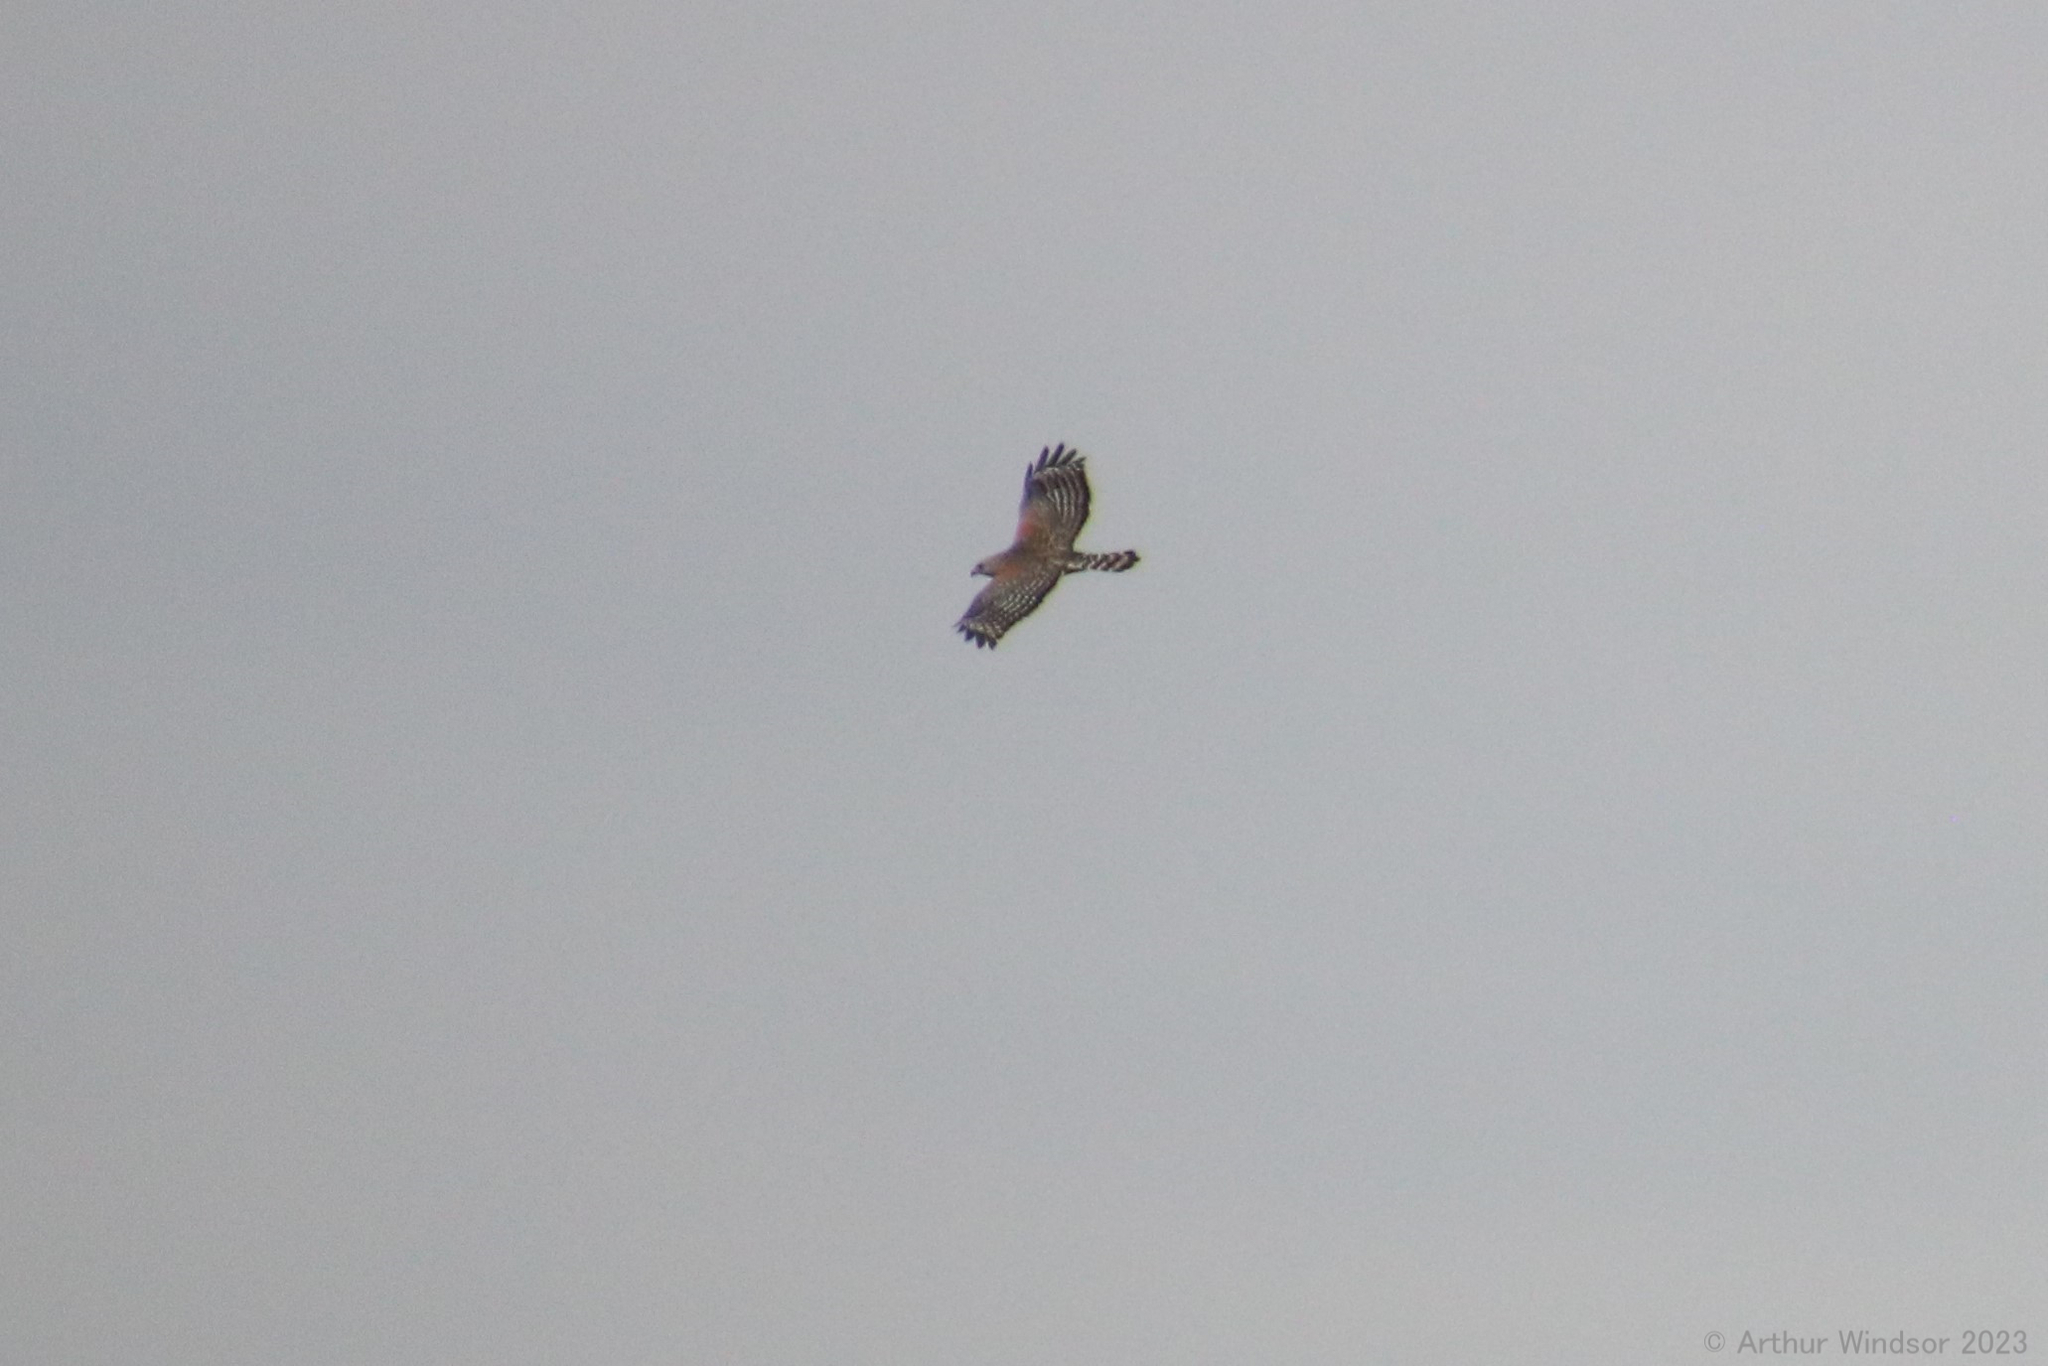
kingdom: Animalia
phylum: Chordata
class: Aves
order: Accipitriformes
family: Accipitridae
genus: Buteo
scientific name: Buteo lineatus
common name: Red-shouldered hawk
